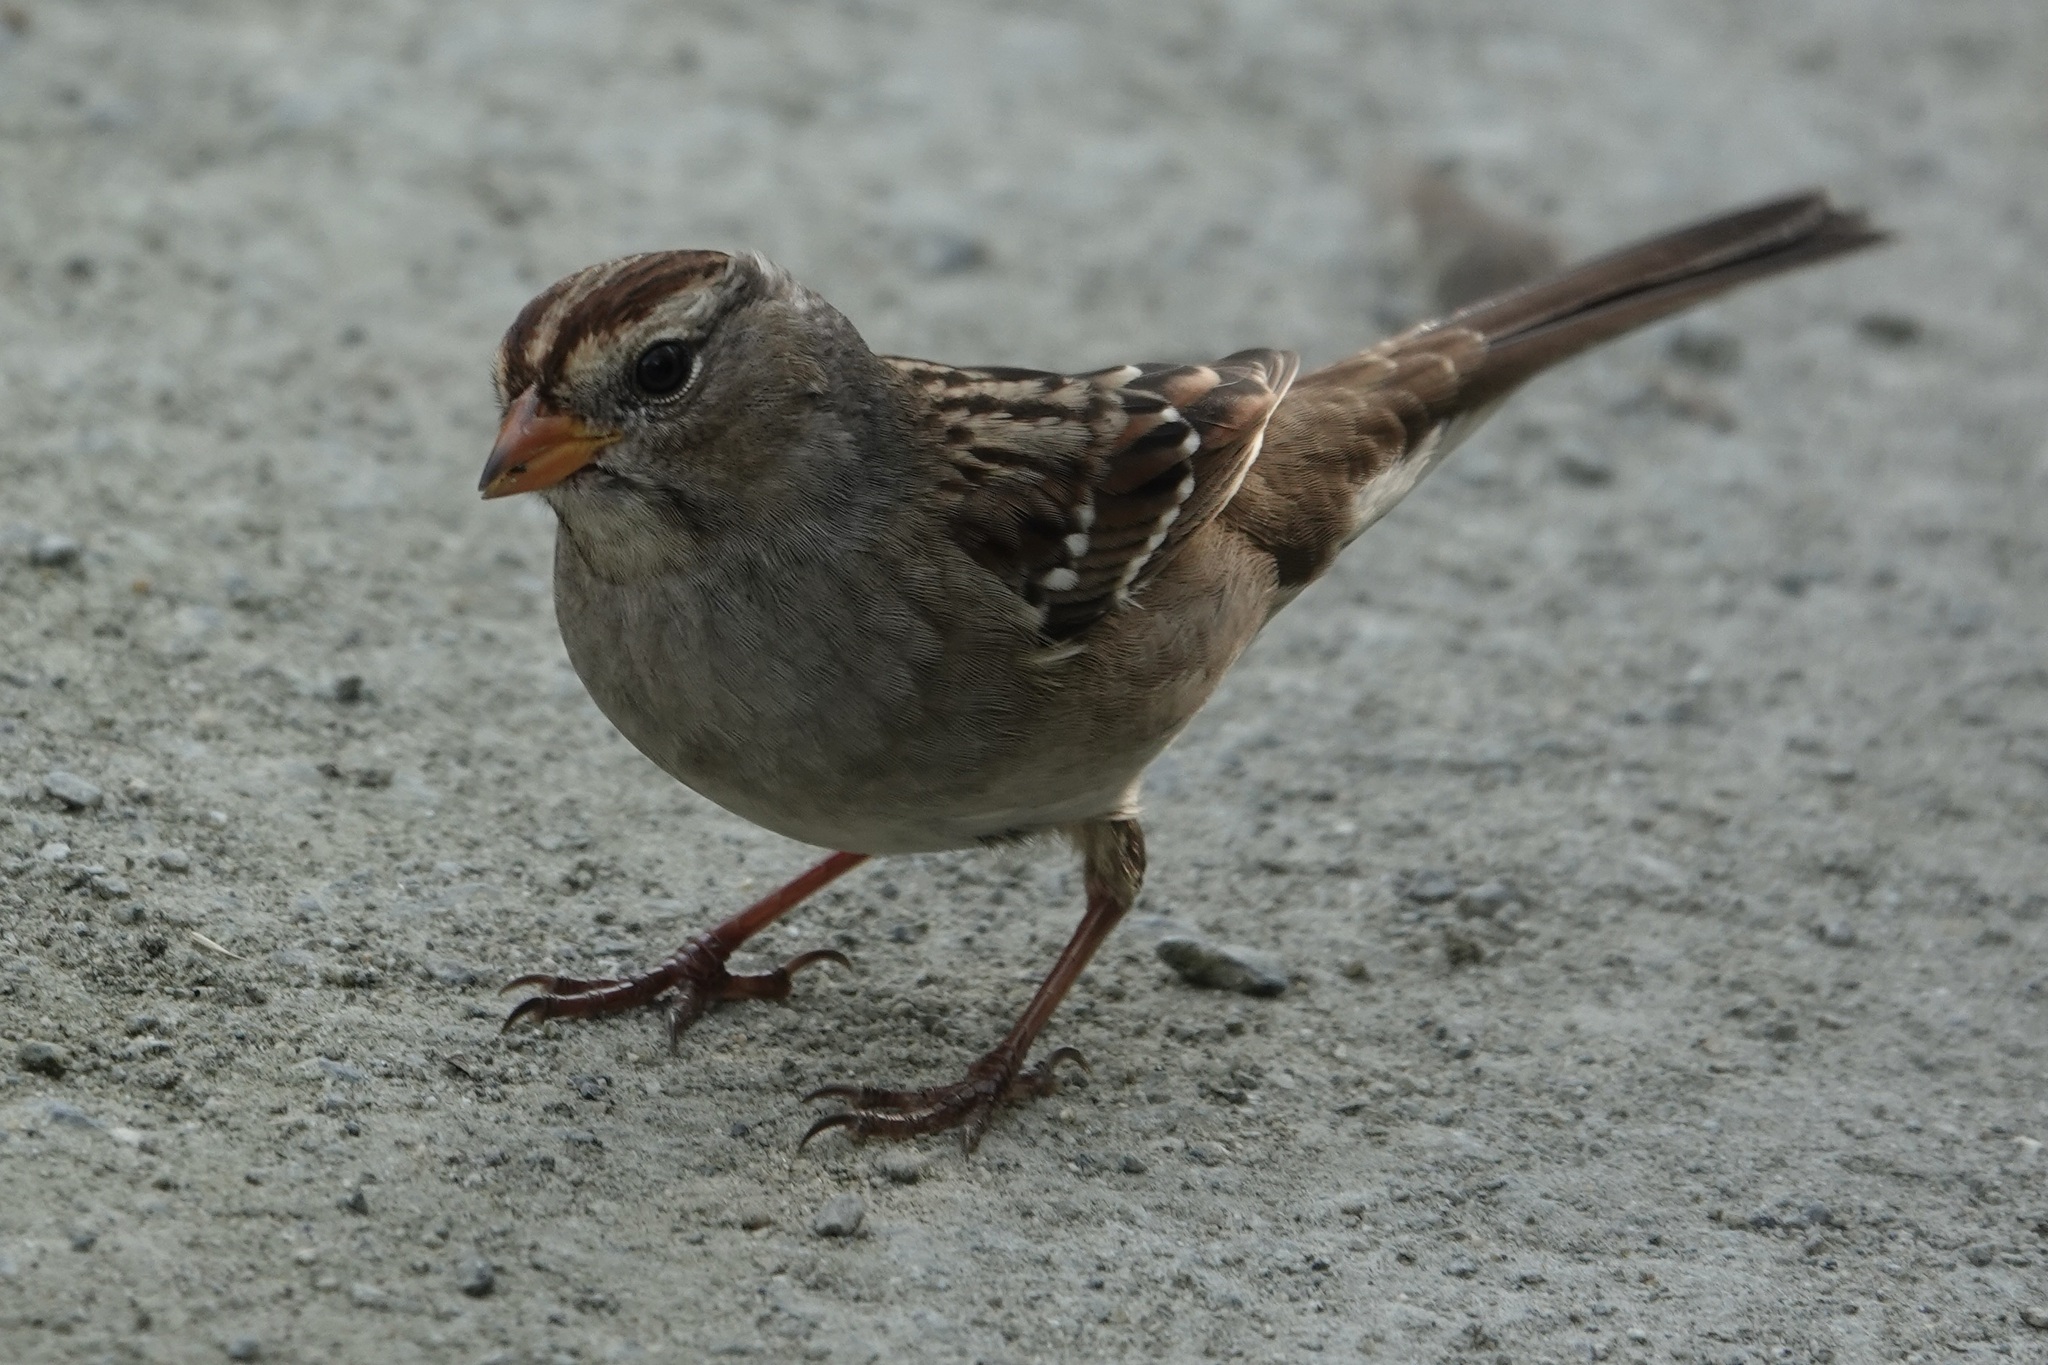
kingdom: Animalia
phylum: Chordata
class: Aves
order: Passeriformes
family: Passerellidae
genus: Zonotrichia
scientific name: Zonotrichia leucophrys
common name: White-crowned sparrow
